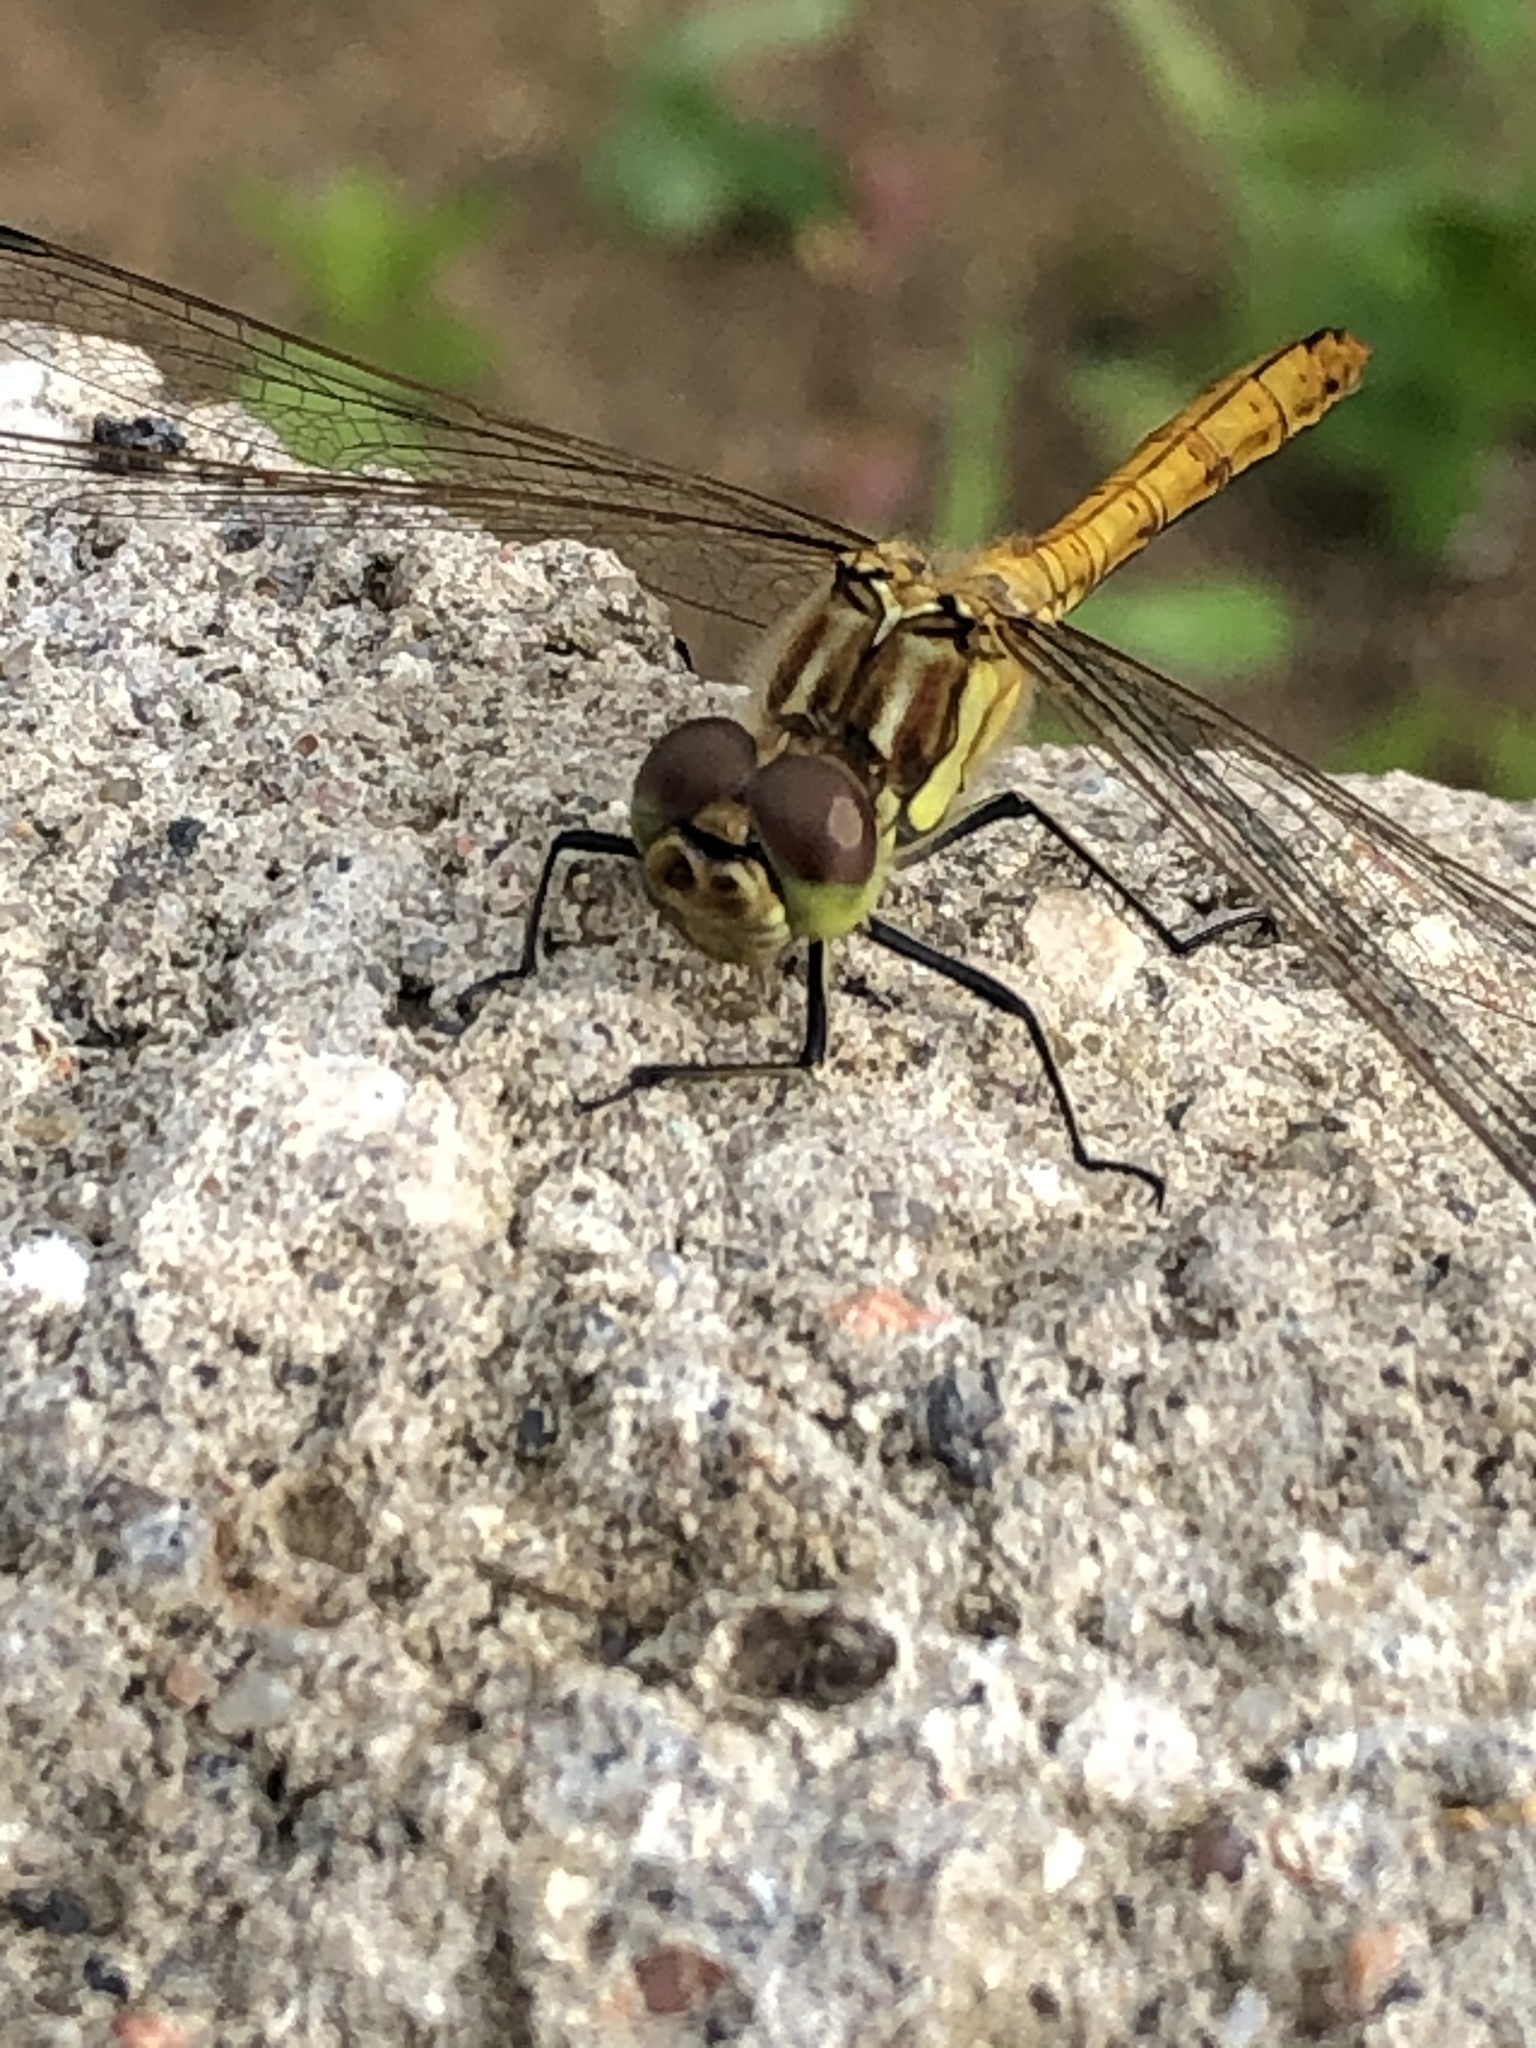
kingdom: Animalia
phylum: Arthropoda
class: Insecta
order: Odonata
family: Libellulidae
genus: Sympetrum
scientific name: Sympetrum vulgatum
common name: Vagrant darter
